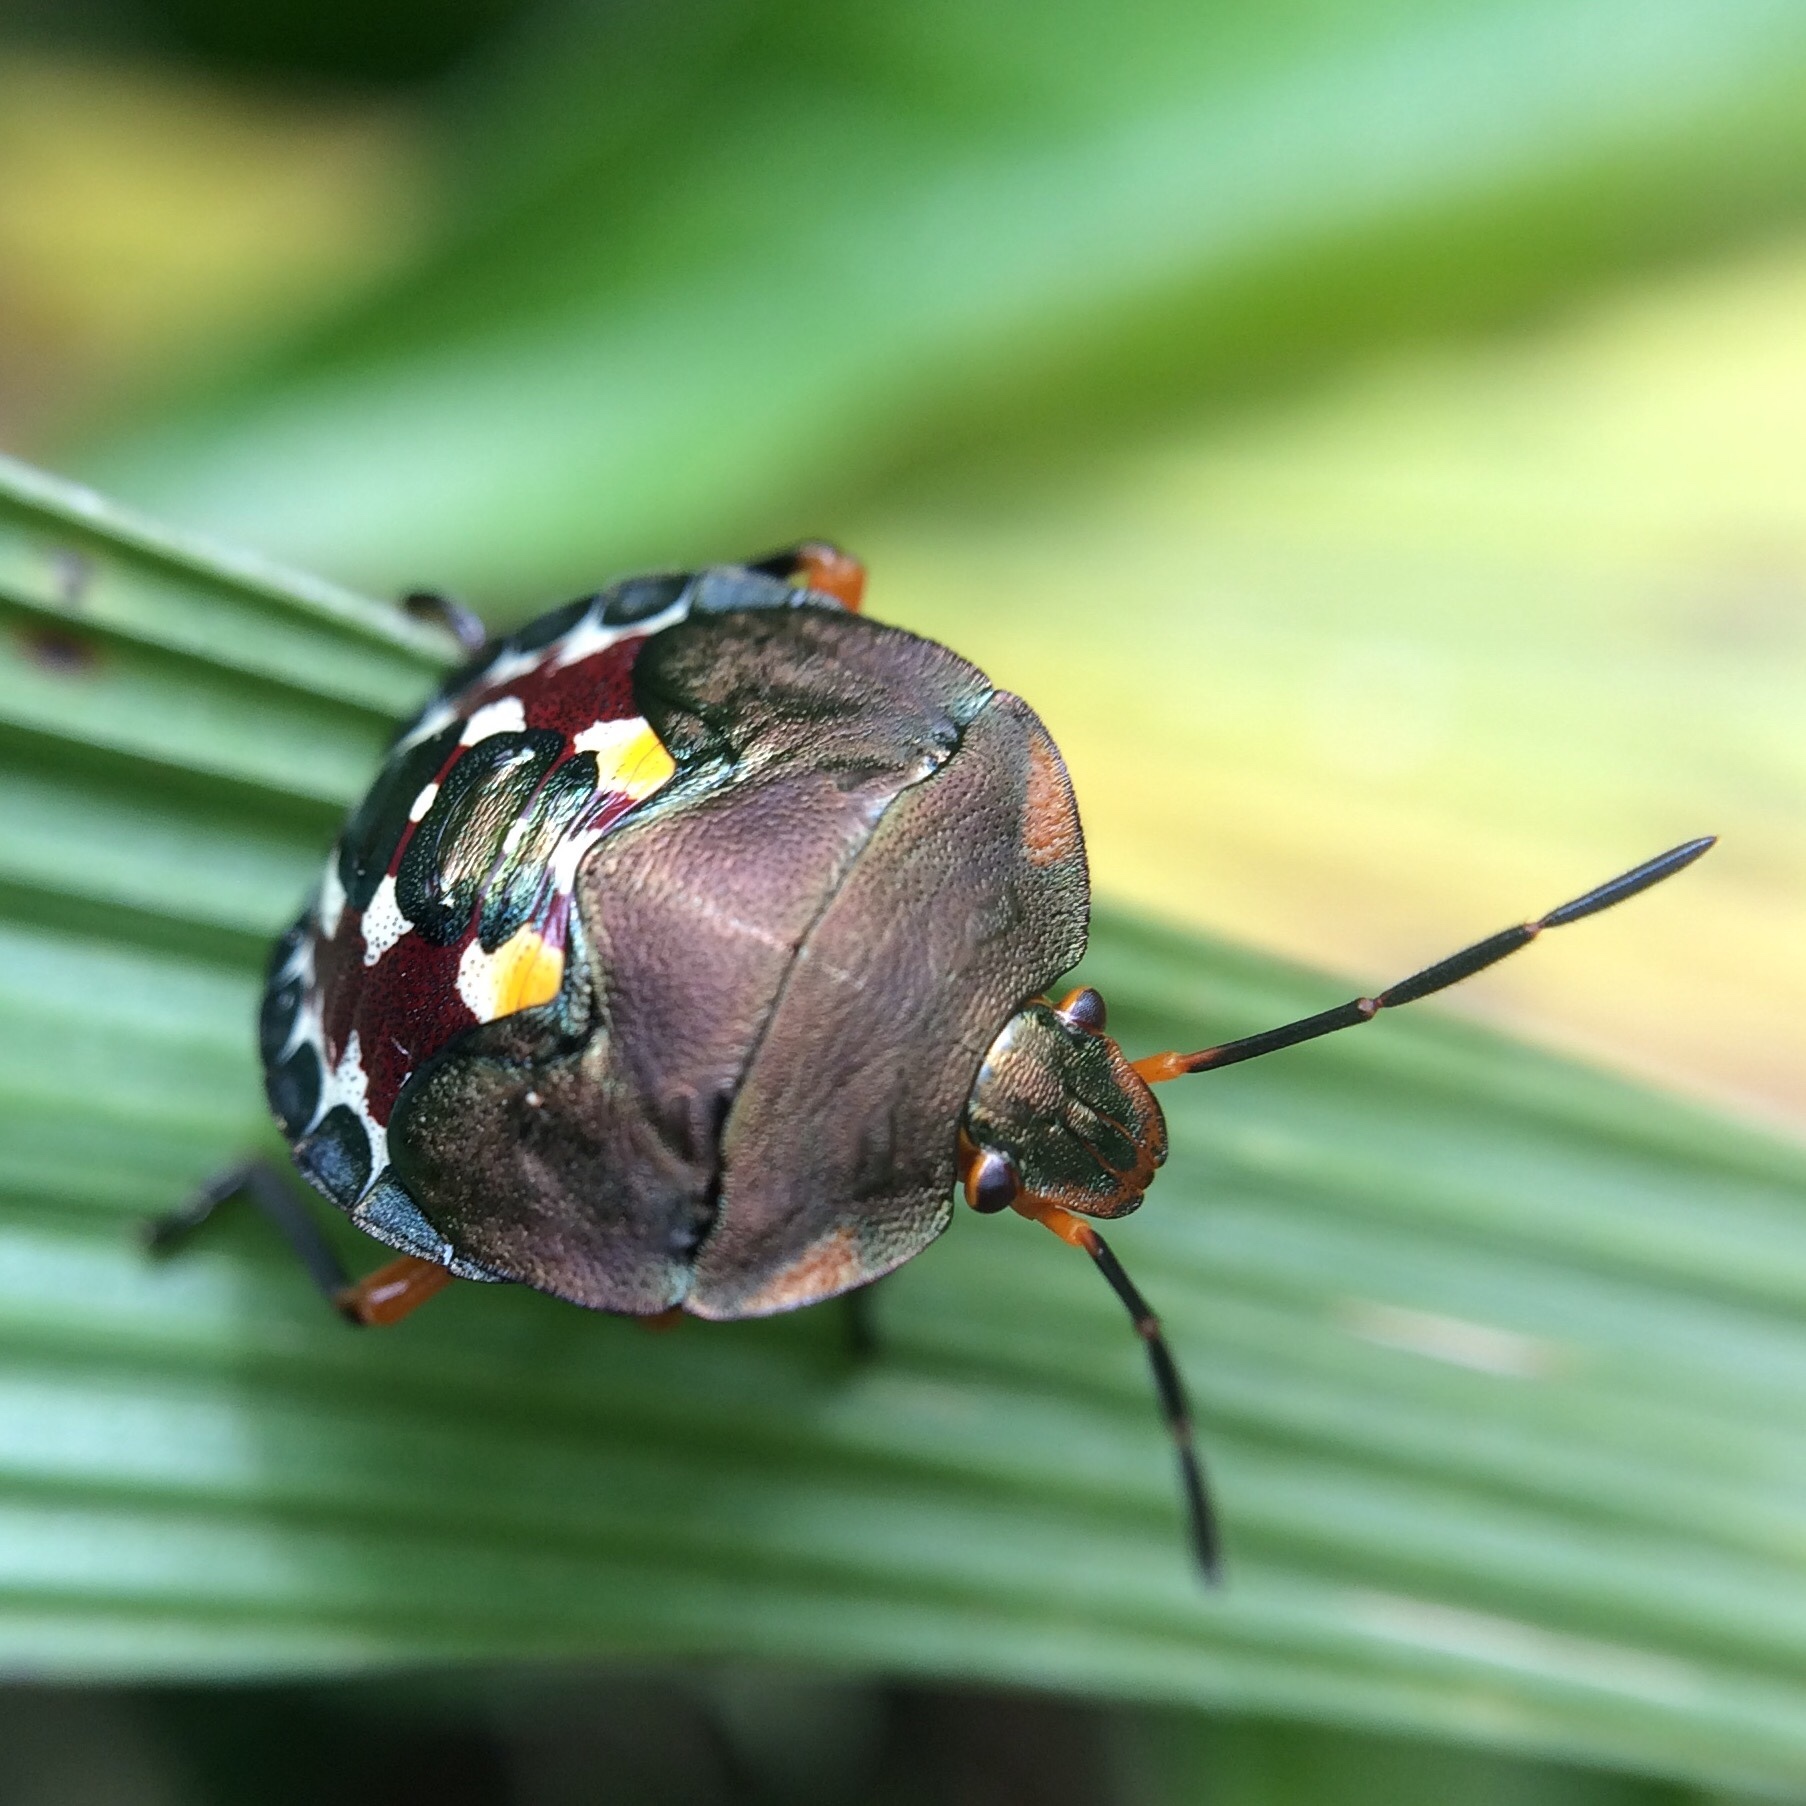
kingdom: Animalia
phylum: Arthropoda
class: Insecta
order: Hemiptera
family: Pentatomidae
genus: Caura
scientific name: Caura rufiventris
